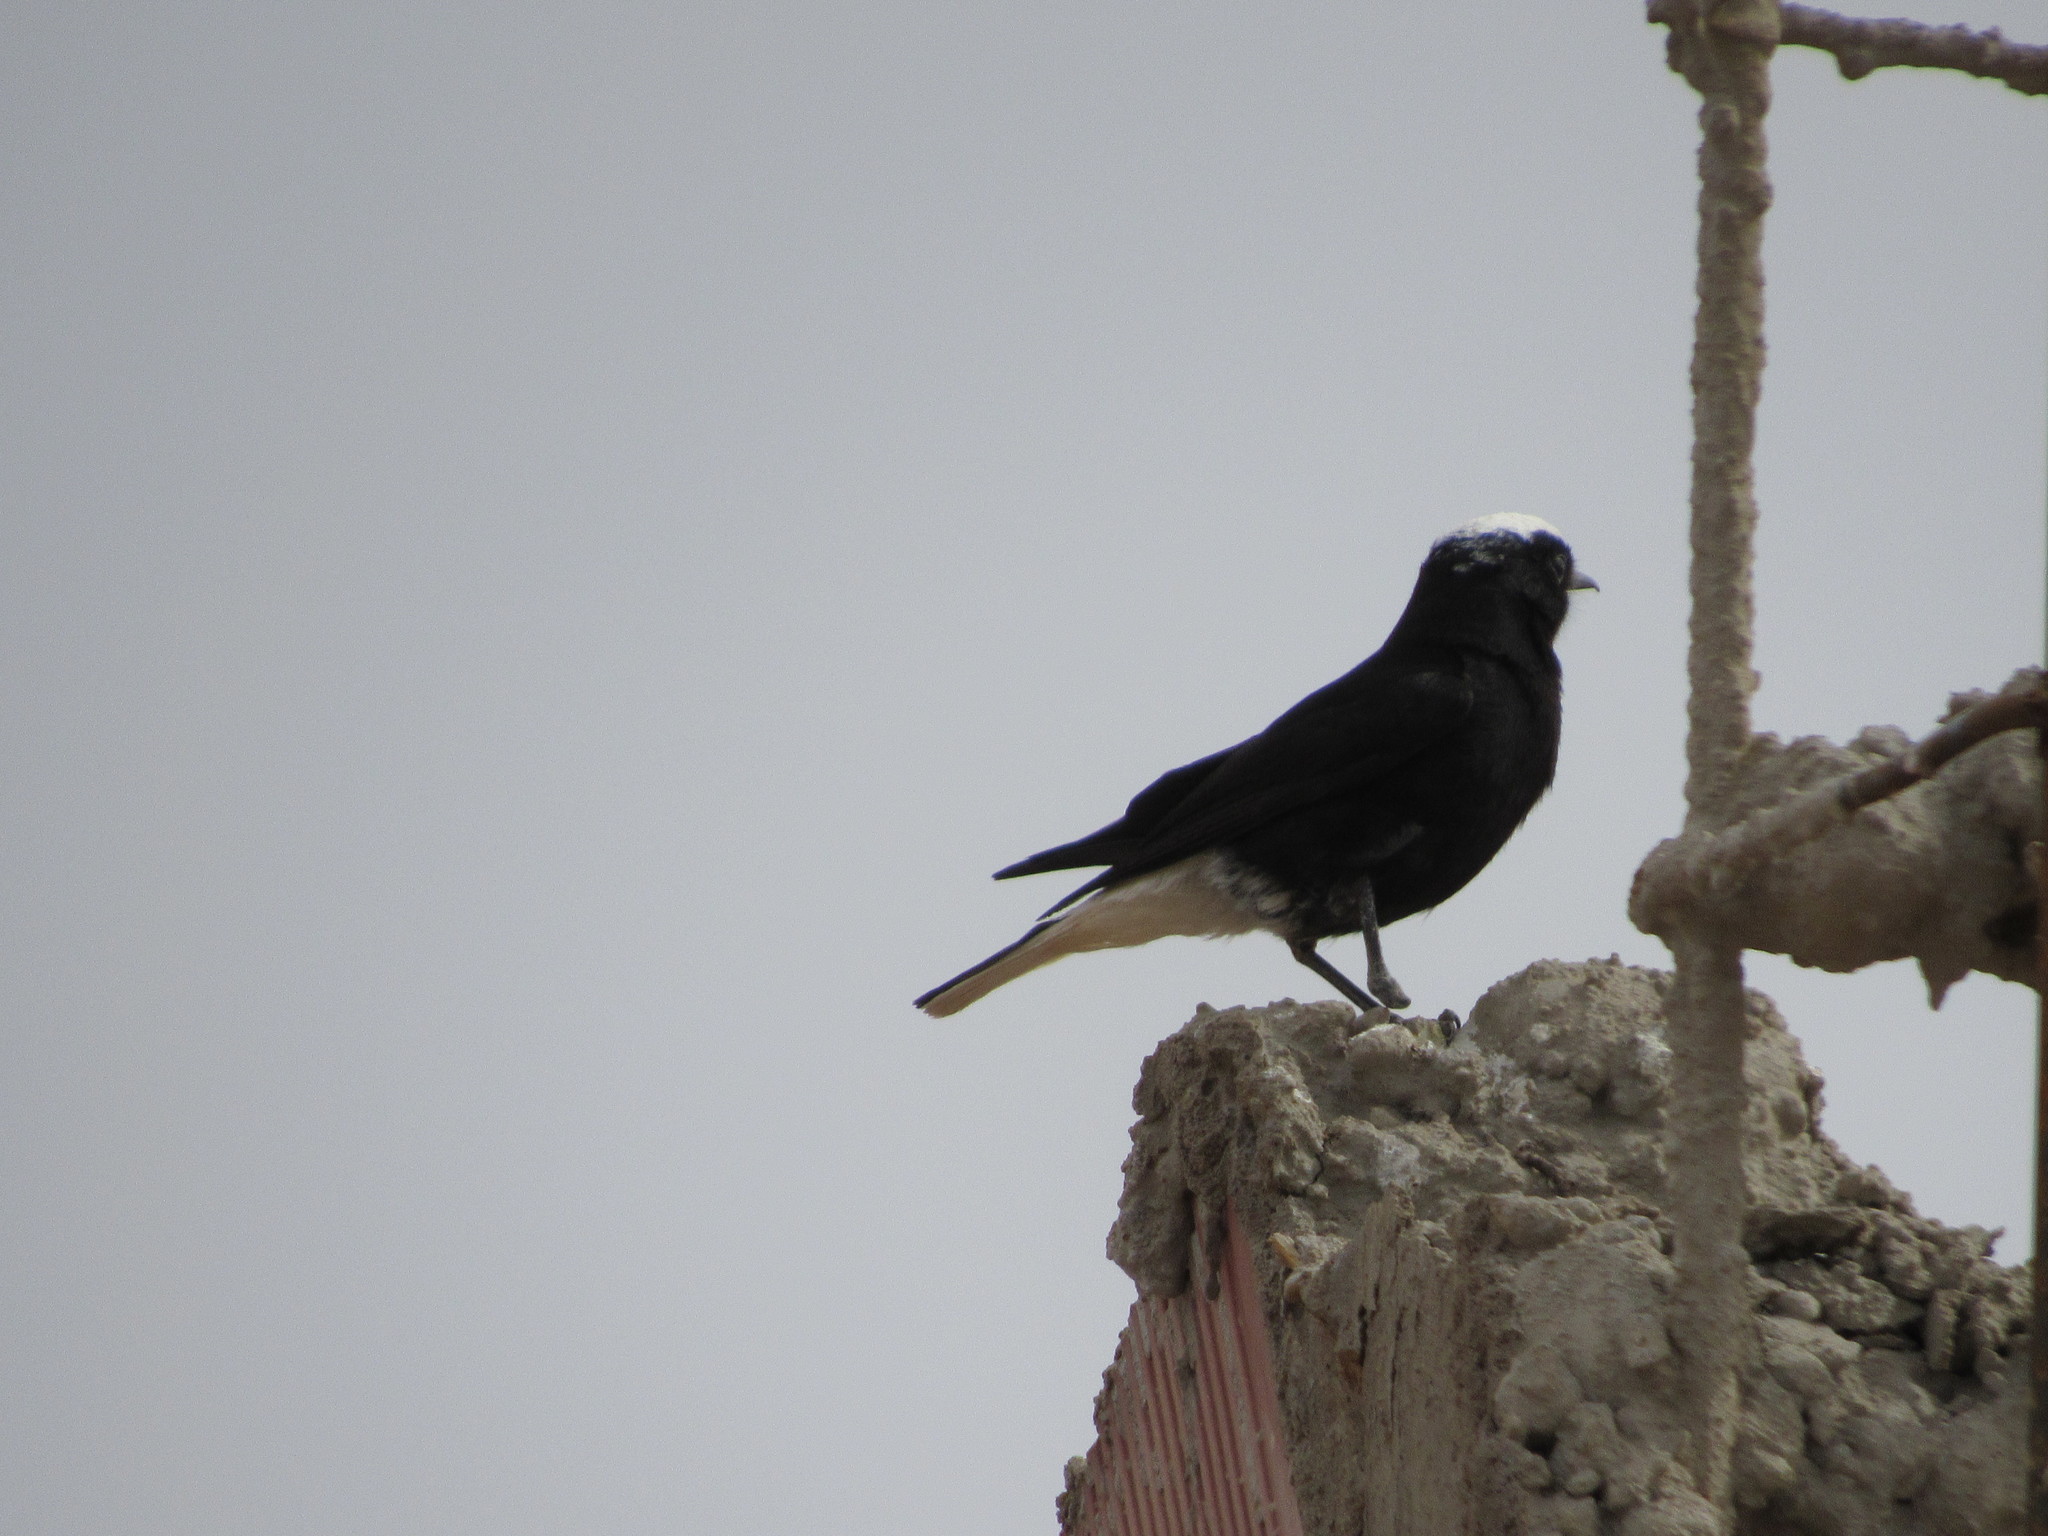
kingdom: Animalia
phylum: Chordata
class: Aves
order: Passeriformes
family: Muscicapidae
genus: Oenanthe
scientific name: Oenanthe leucopyga
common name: White-crowned wheatear
